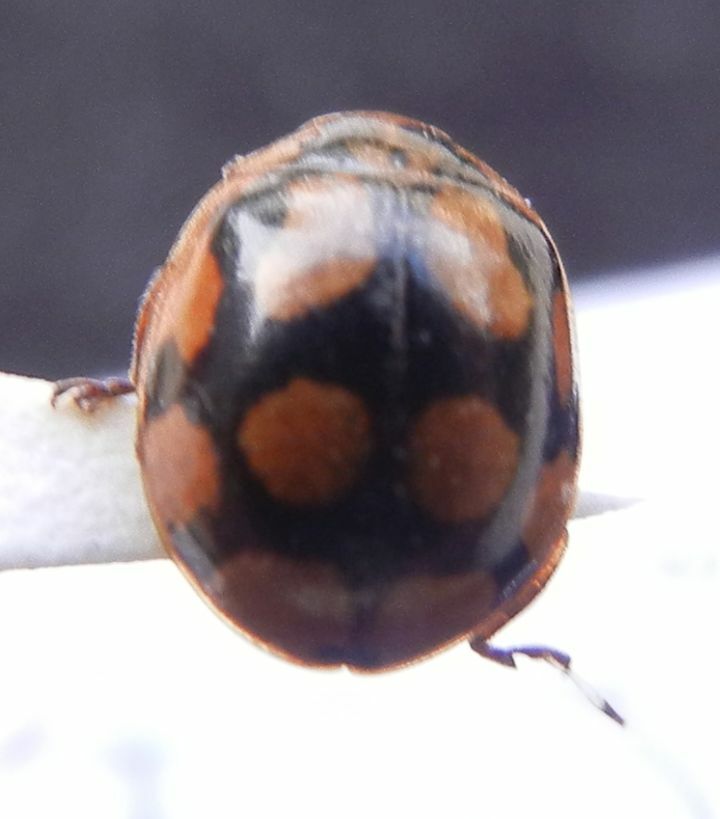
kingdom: Animalia
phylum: Arthropoda
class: Insecta
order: Coleoptera
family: Coccinellidae
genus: Adalia
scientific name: Adalia decempunctata
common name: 10-spot ladybird
